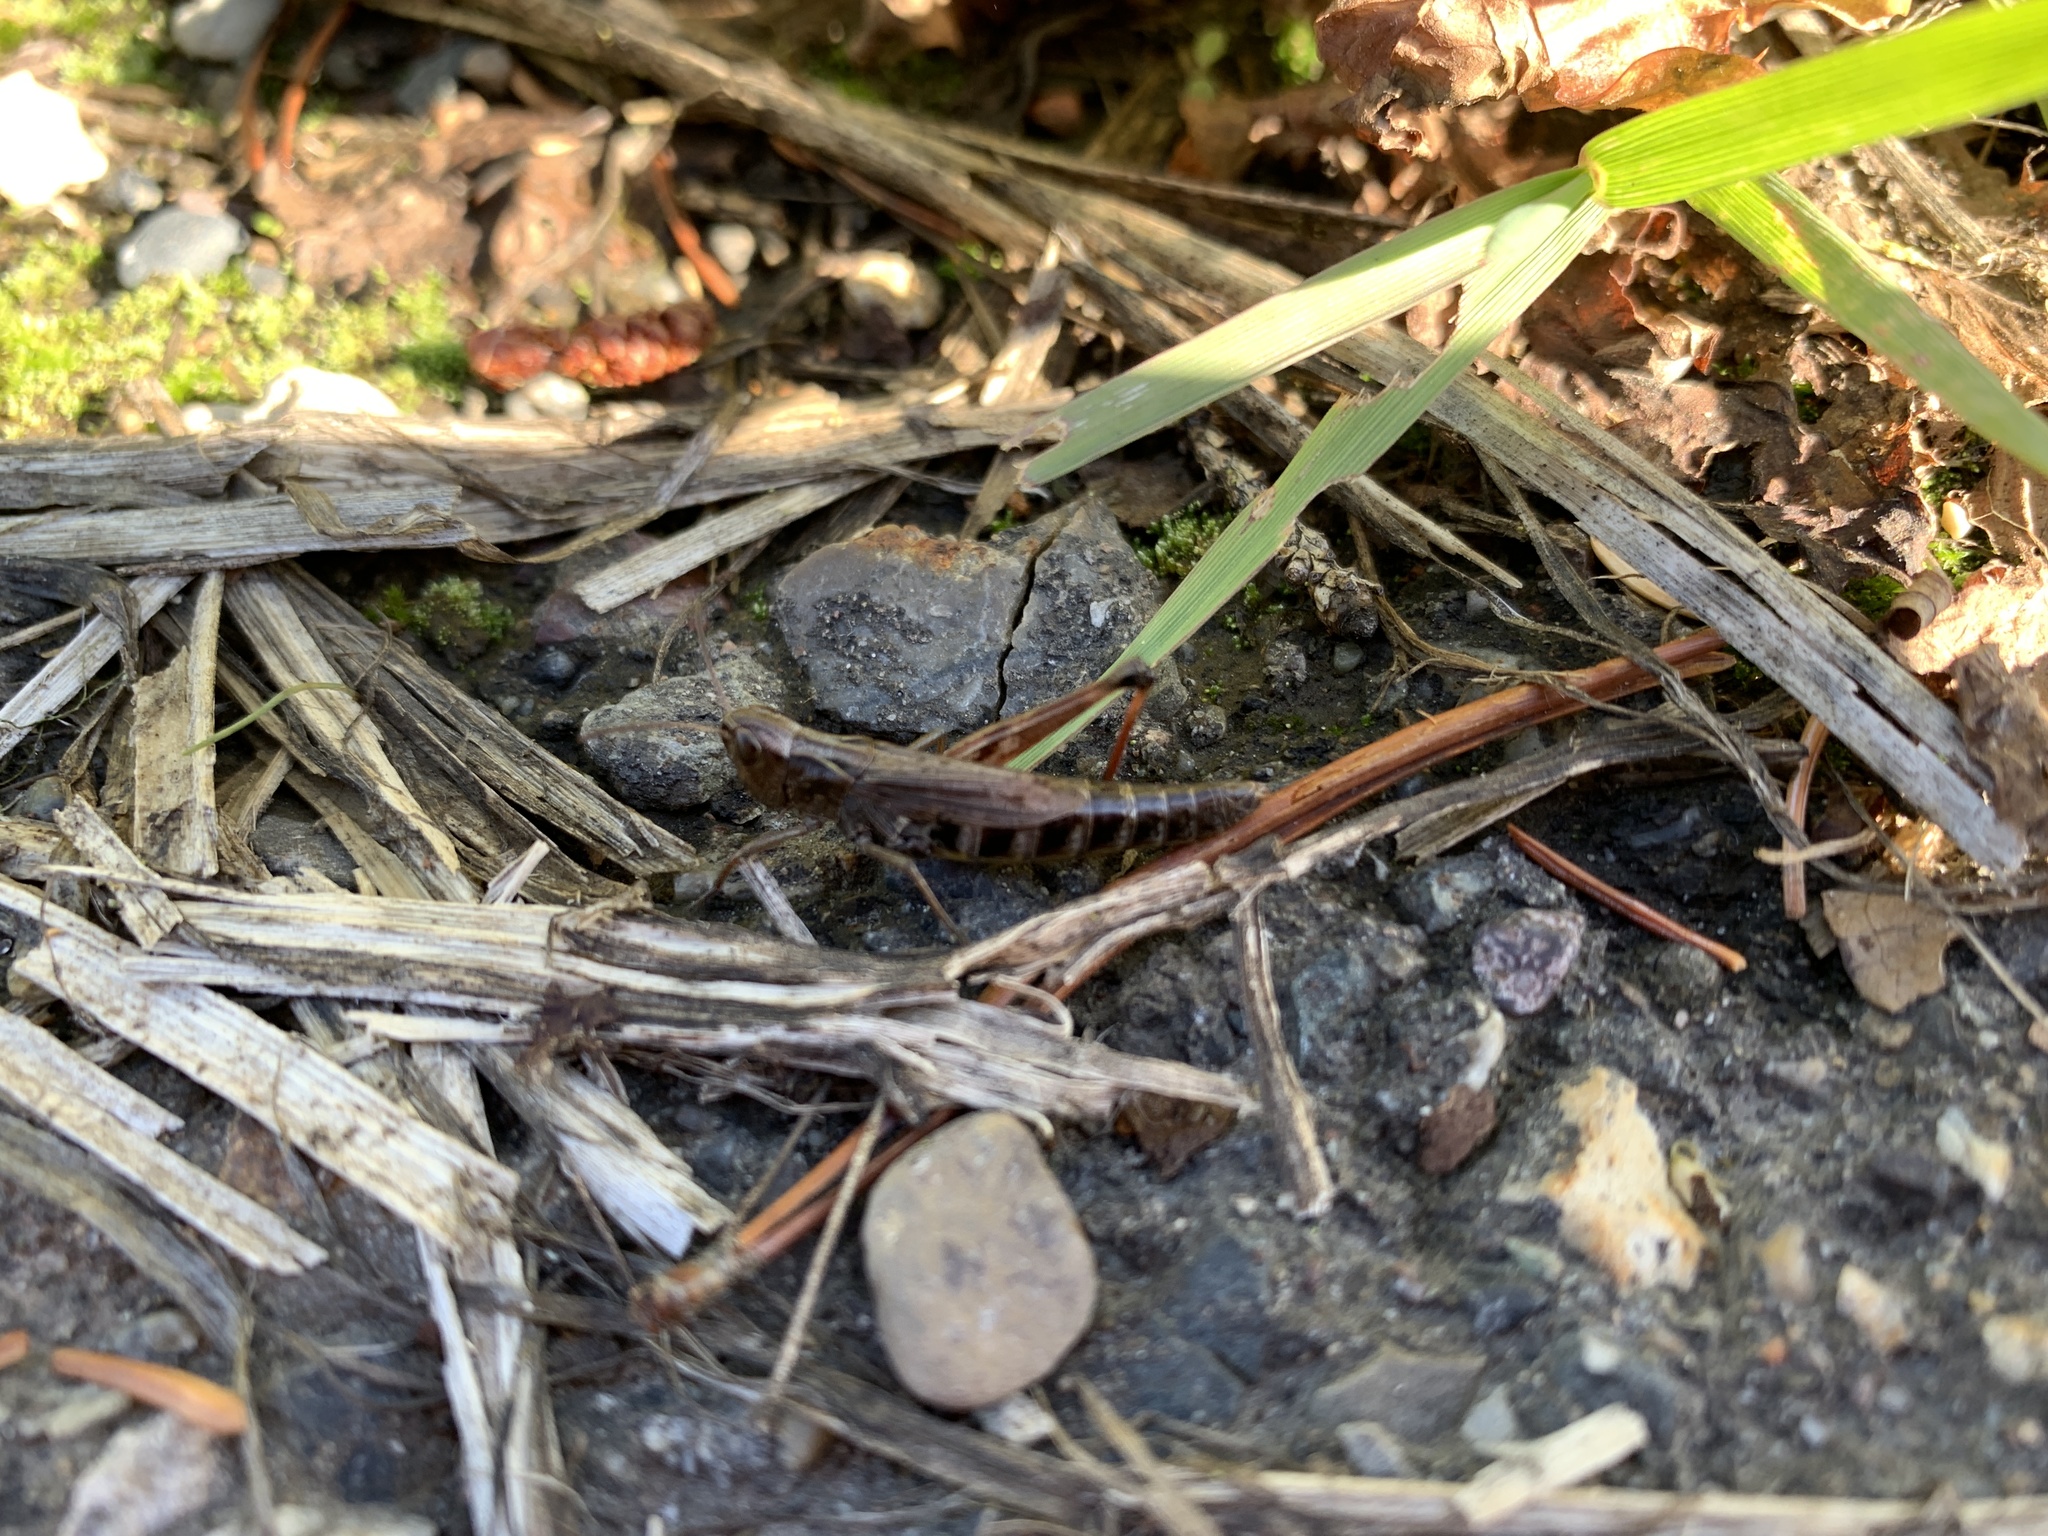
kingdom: Animalia
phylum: Arthropoda
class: Insecta
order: Orthoptera
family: Acrididae
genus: Pseudochorthippus
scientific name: Pseudochorthippus curtipennis
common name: Marsh meadow grasshopper
